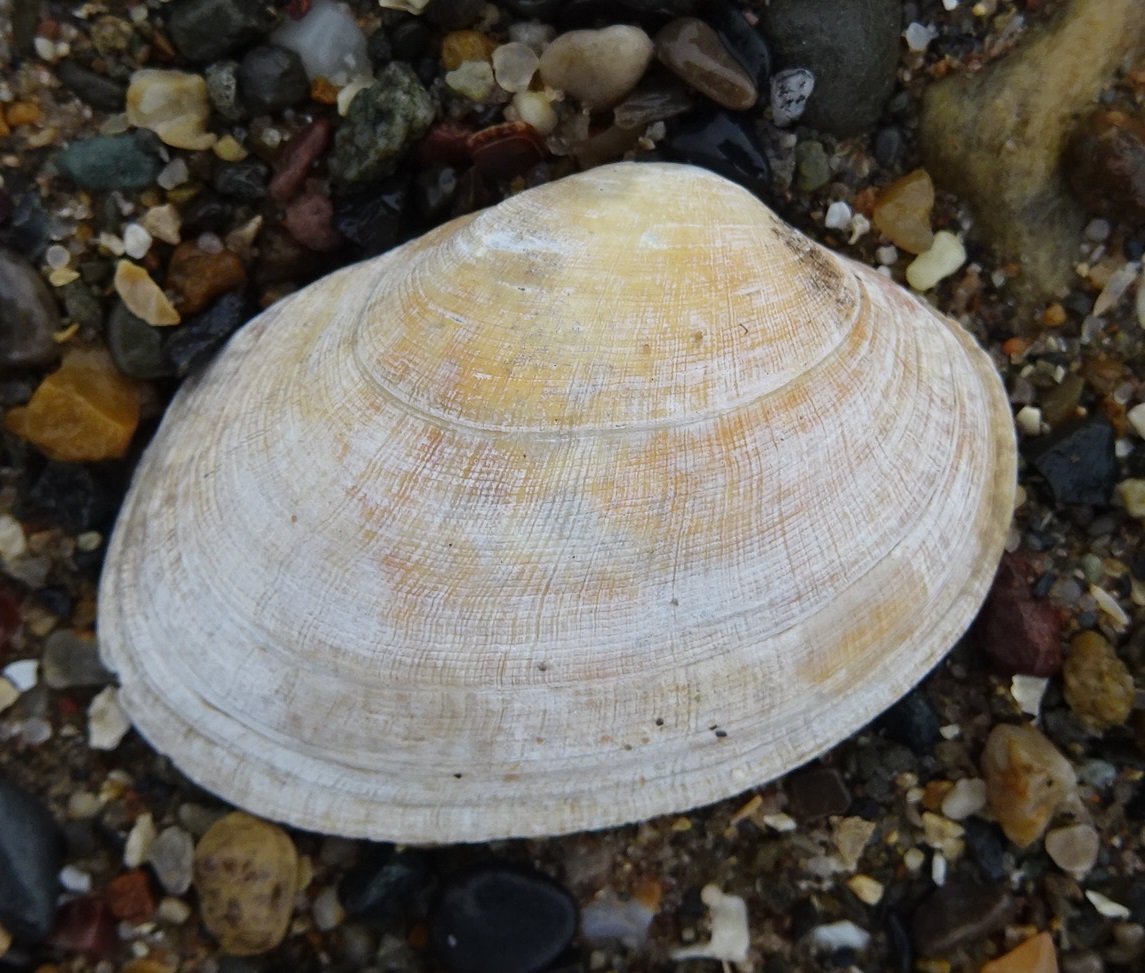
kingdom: Animalia
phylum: Mollusca
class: Bivalvia
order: Venerida
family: Veneridae
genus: Venerupis
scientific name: Venerupis corrugata
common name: Pullet carpet shell
